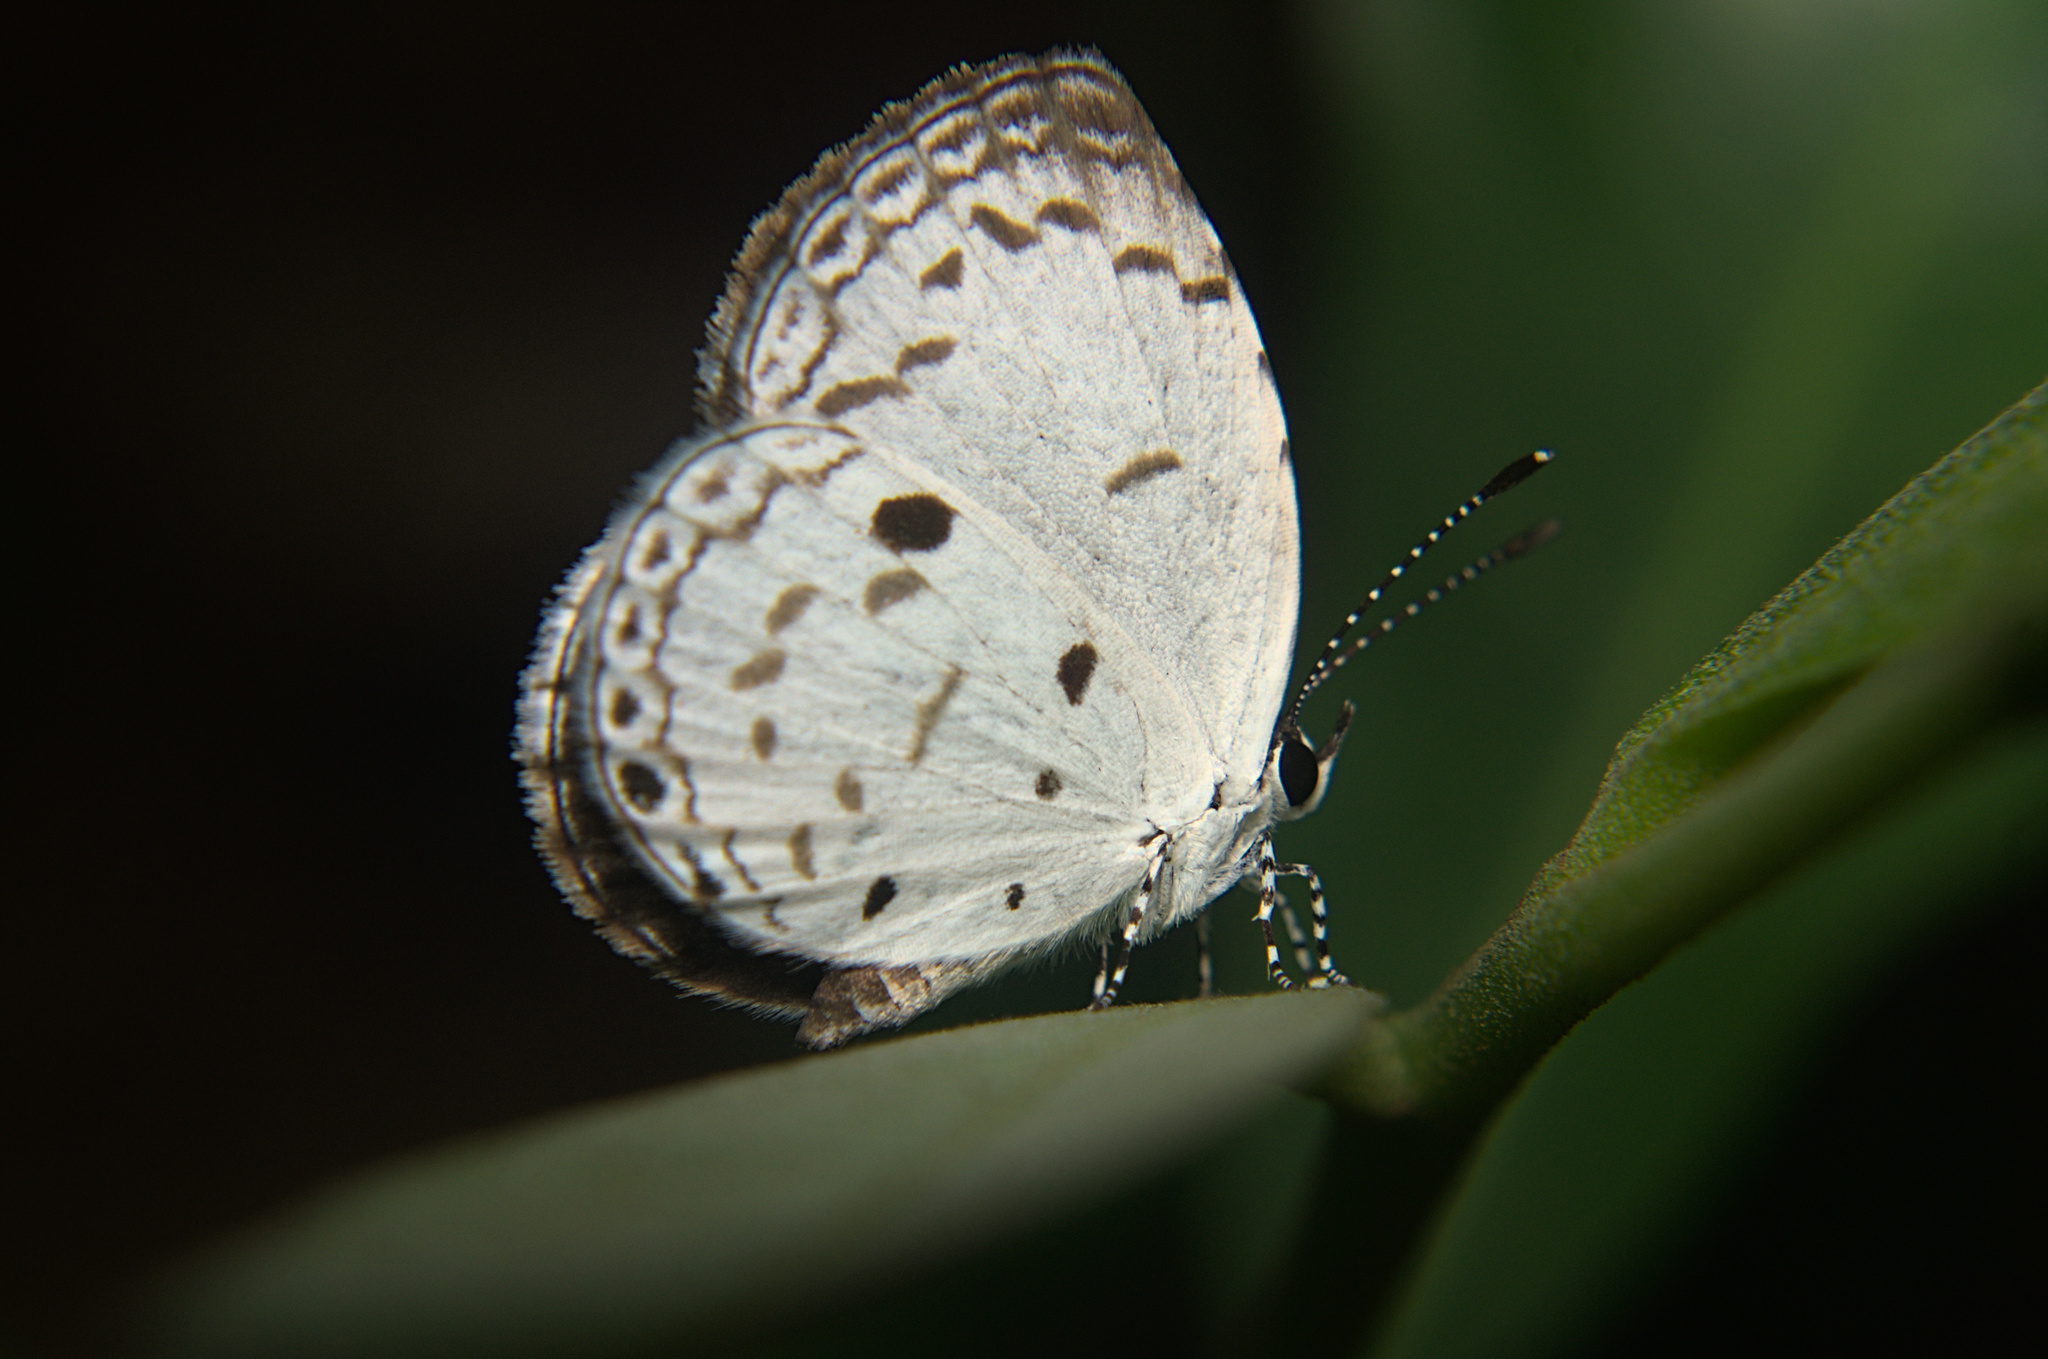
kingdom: Animalia
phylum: Arthropoda
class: Insecta
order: Lepidoptera
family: Lycaenidae
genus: Neopithecops
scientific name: Neopithecops zalmora
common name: Quaker
